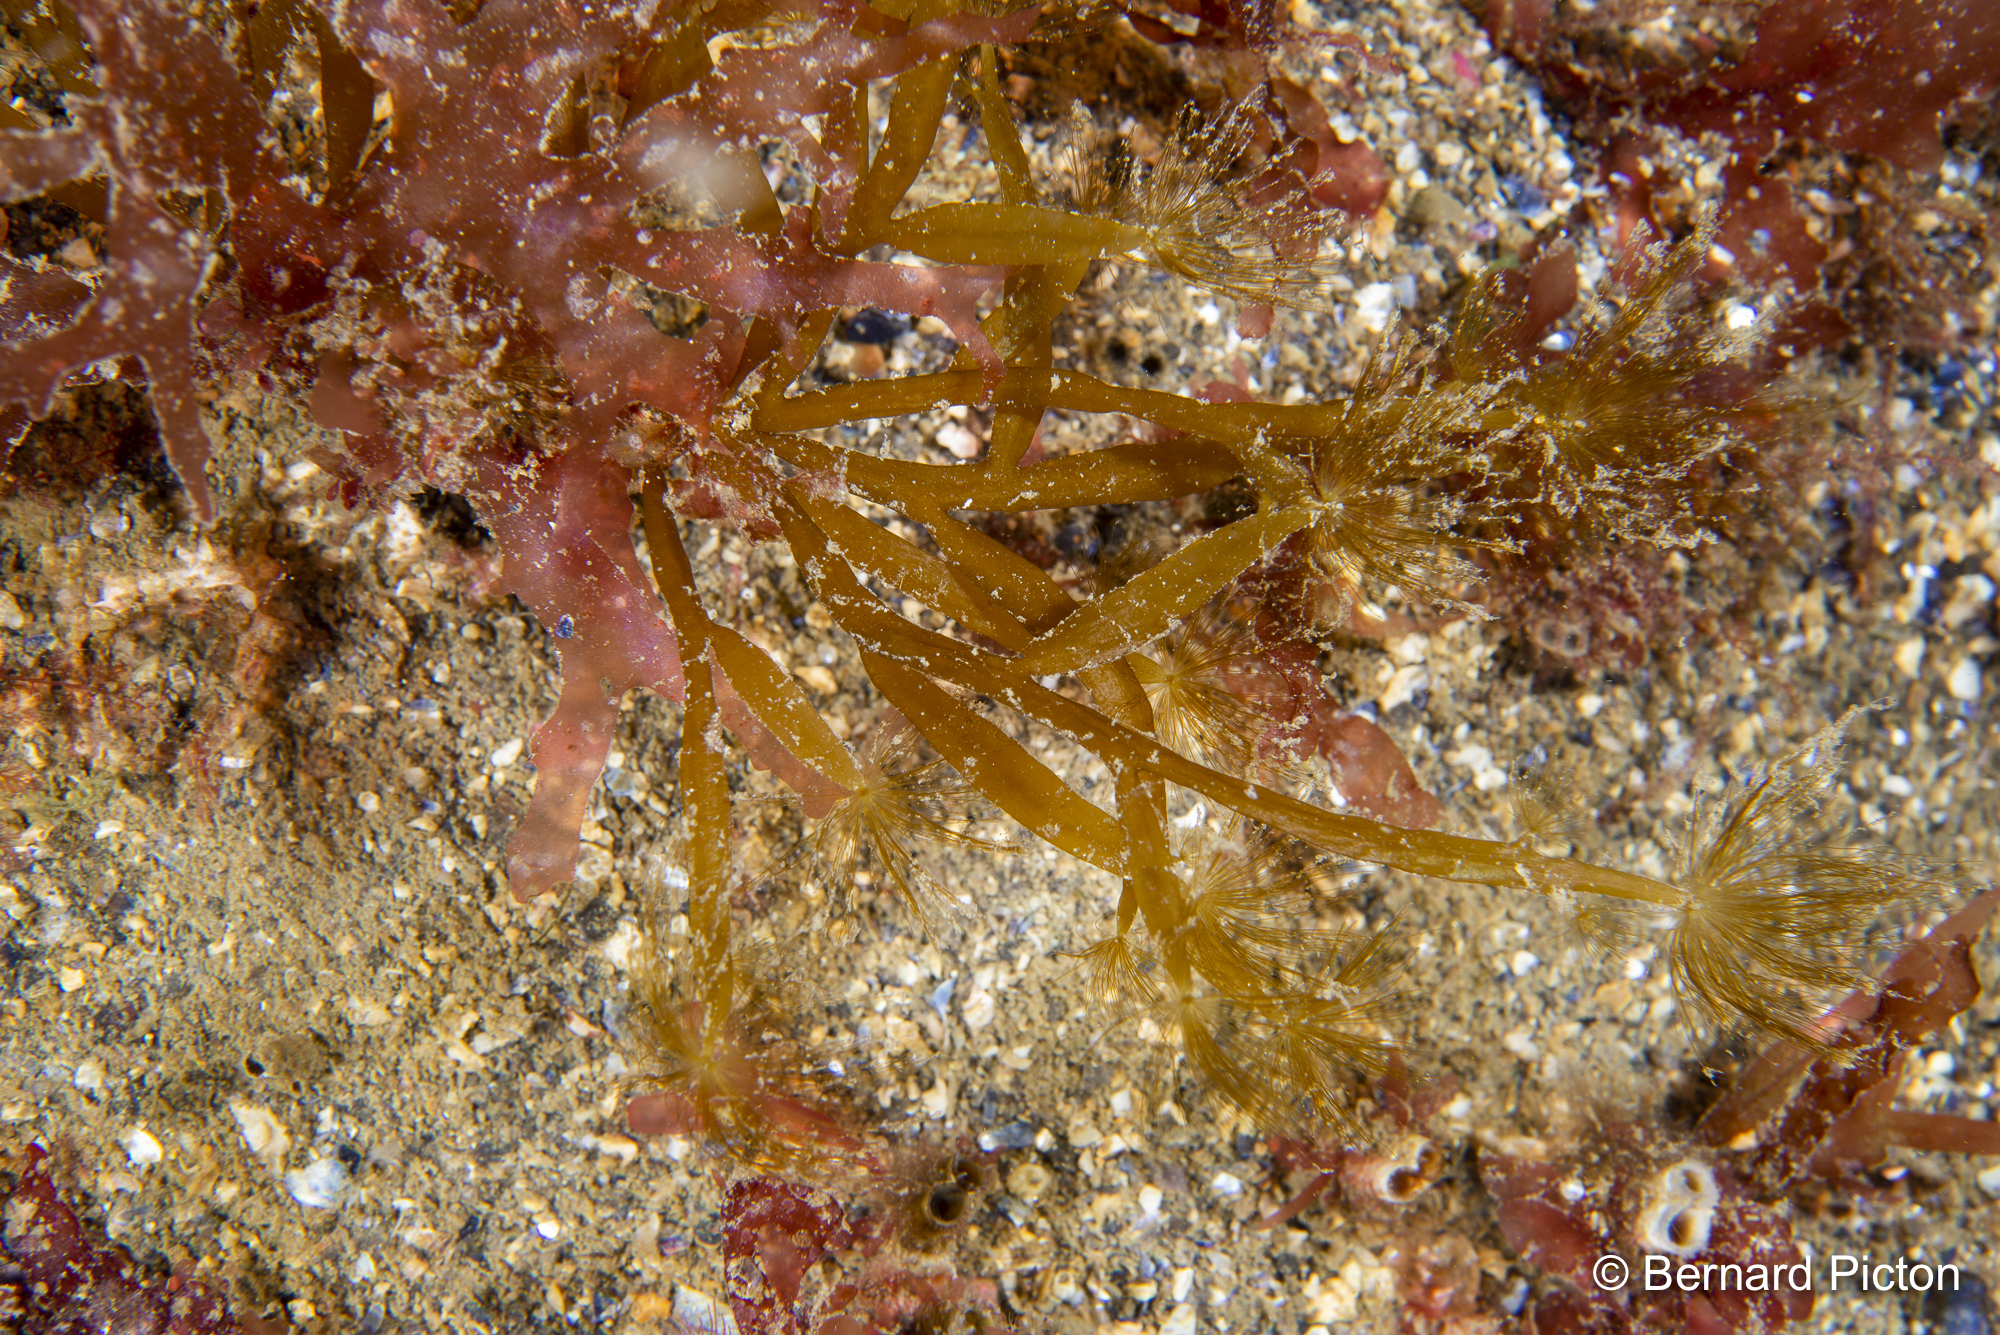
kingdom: Chromista
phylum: Ochrophyta
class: Phaeophyceae
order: Sporochnales
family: Sporochnaceae
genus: Carpomitra
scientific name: Carpomitra costata
